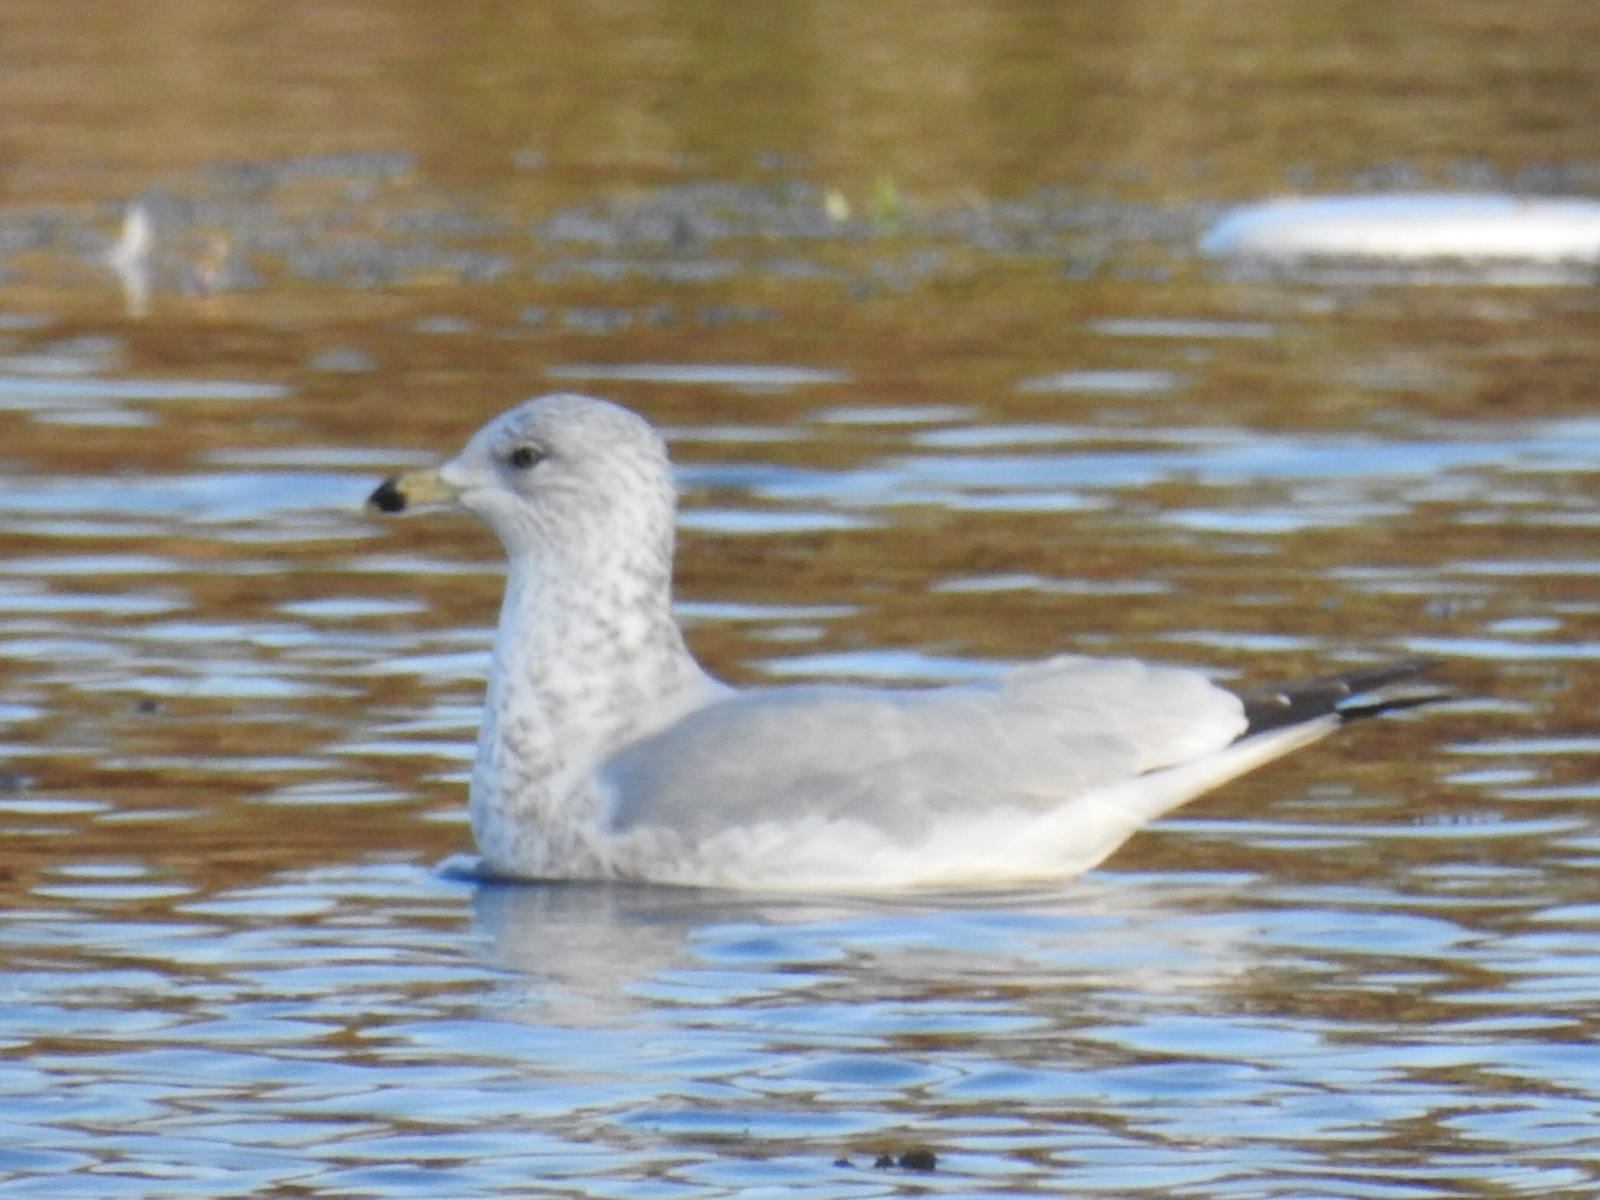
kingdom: Animalia
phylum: Chordata
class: Aves
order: Charadriiformes
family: Laridae
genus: Larus
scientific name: Larus delawarensis
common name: Ring-billed gull
